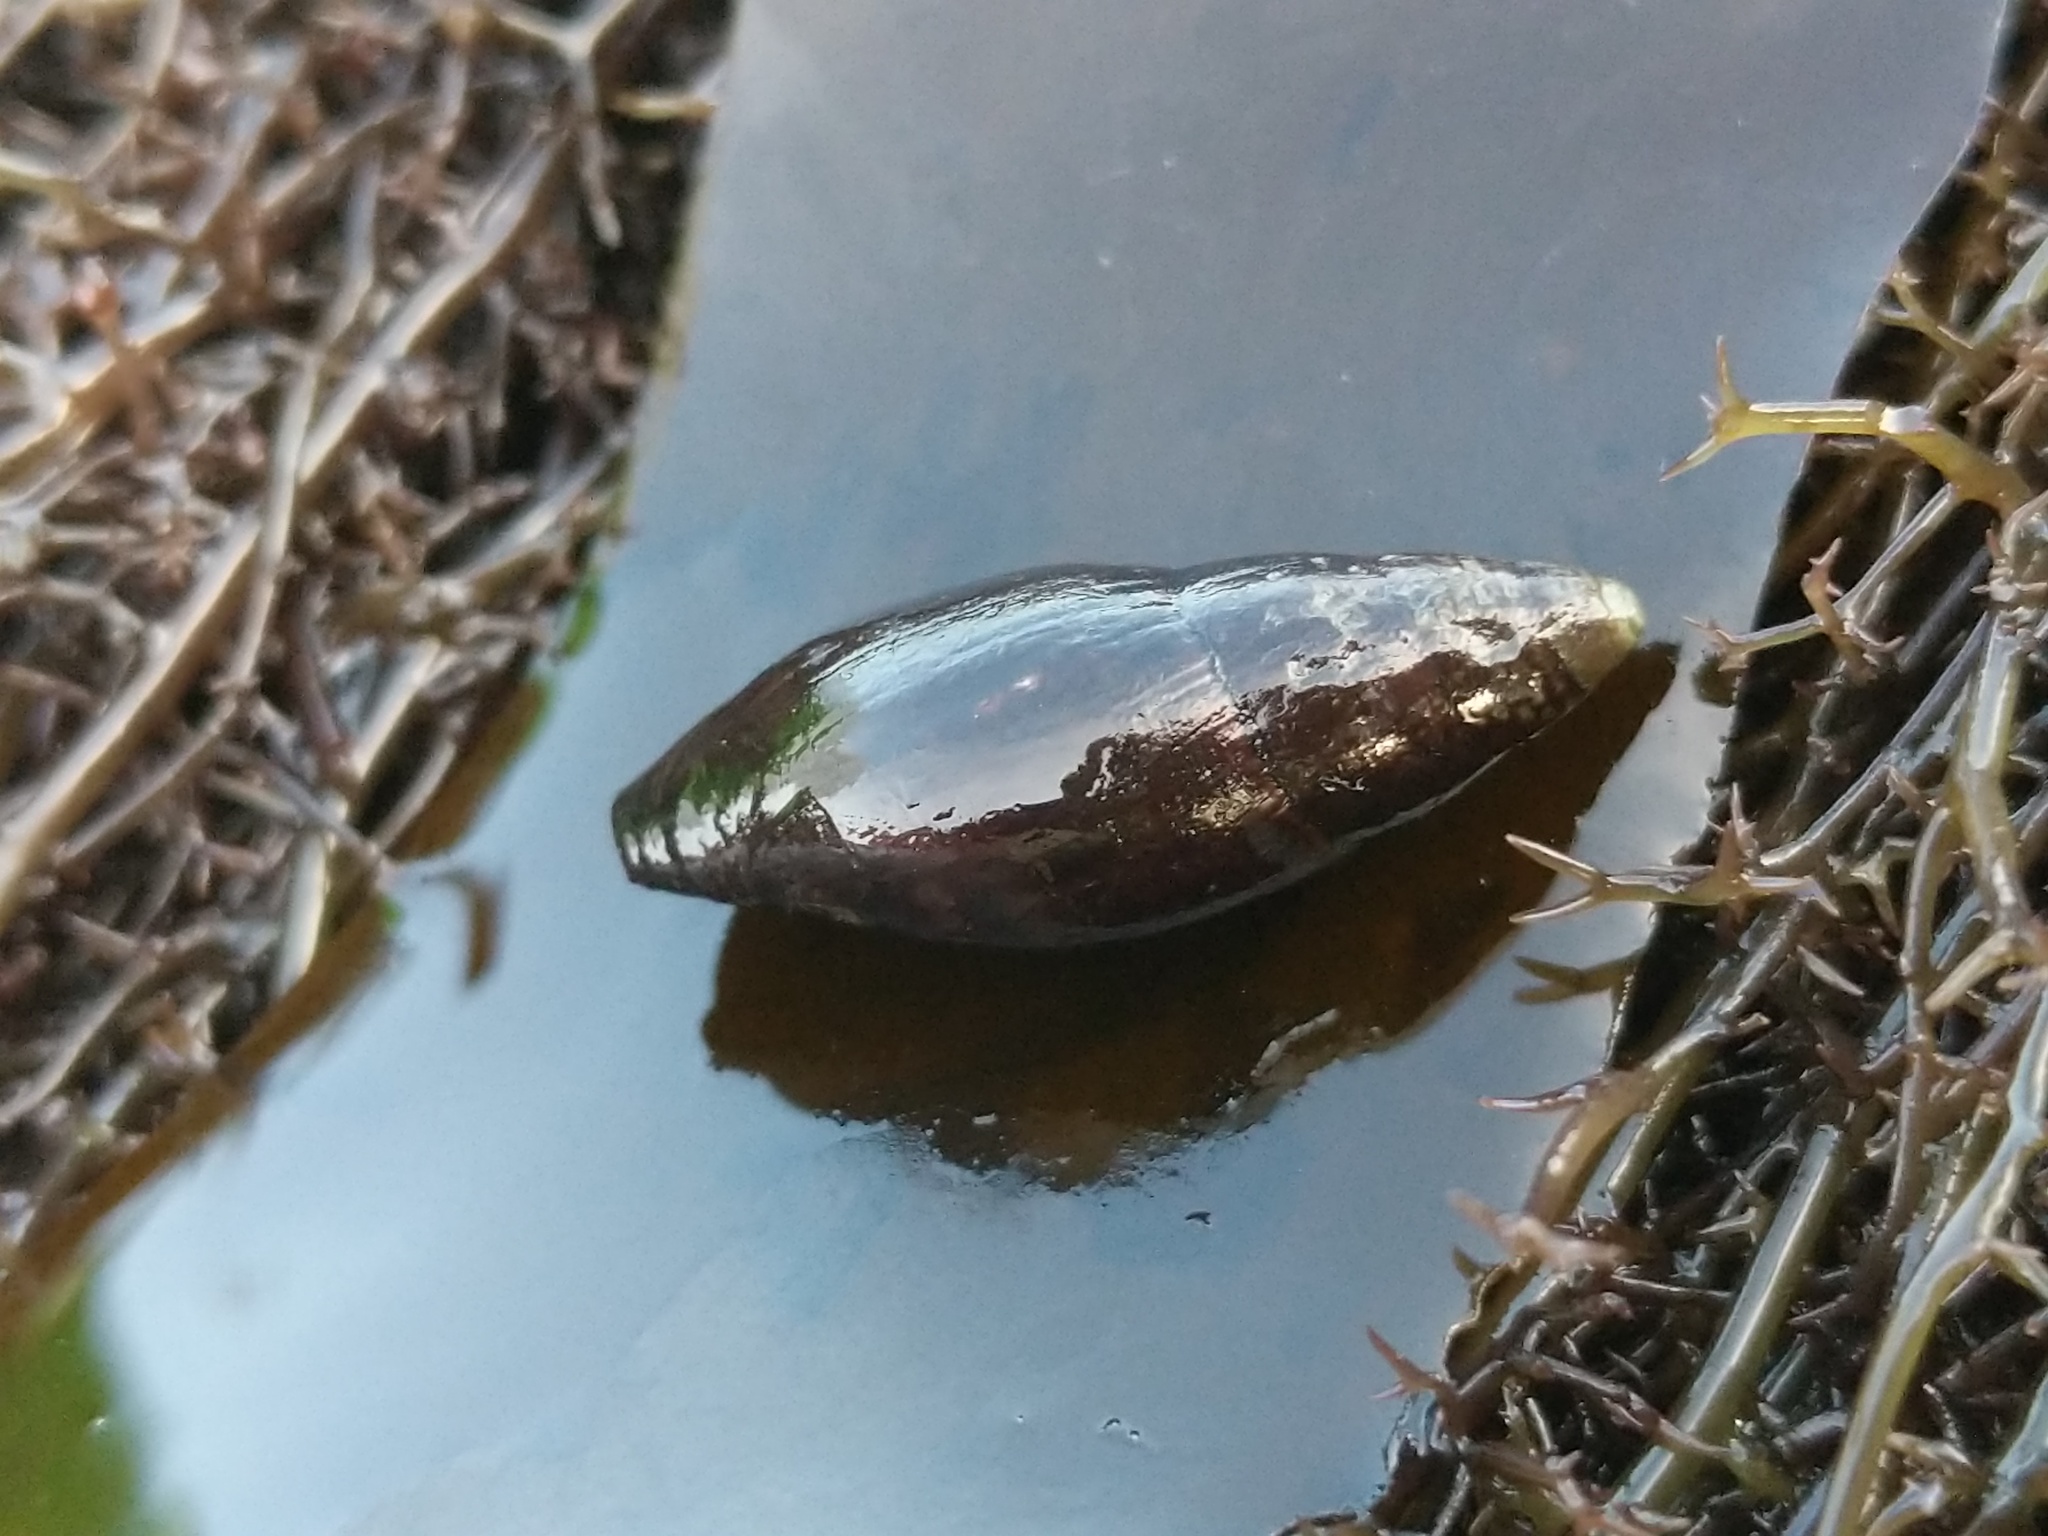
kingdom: Animalia
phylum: Mollusca
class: Gastropoda
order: Neogastropoda
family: Mitridae
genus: Atrimitra
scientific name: Atrimitra idae
